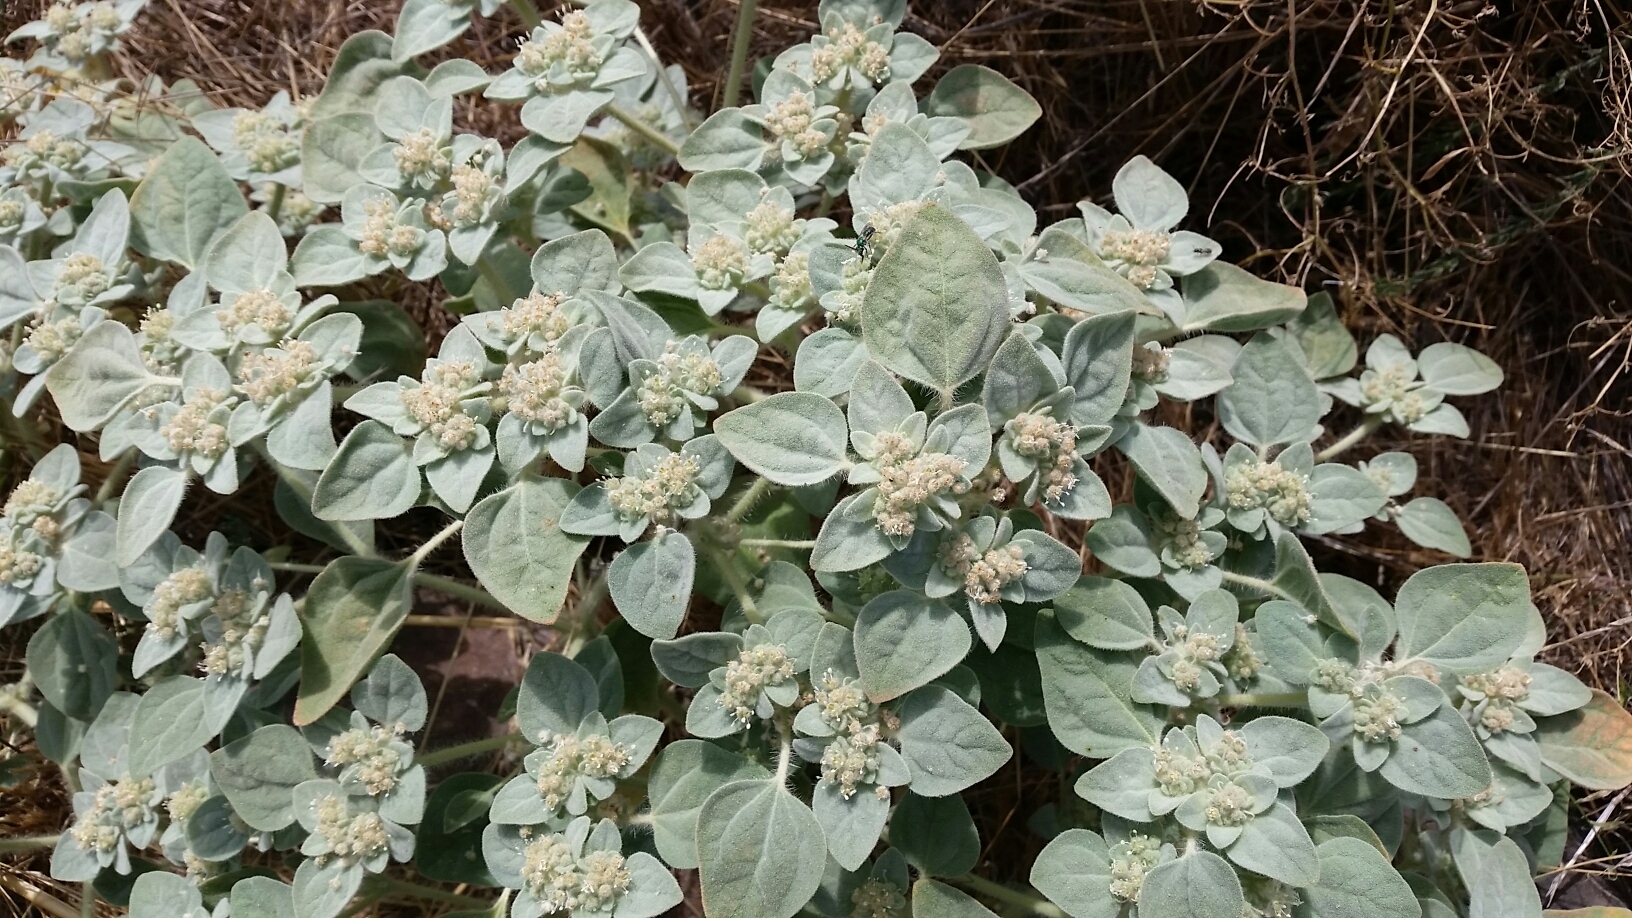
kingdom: Plantae
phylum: Tracheophyta
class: Magnoliopsida
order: Malpighiales
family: Euphorbiaceae
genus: Croton
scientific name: Croton setiger
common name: Dove weed
